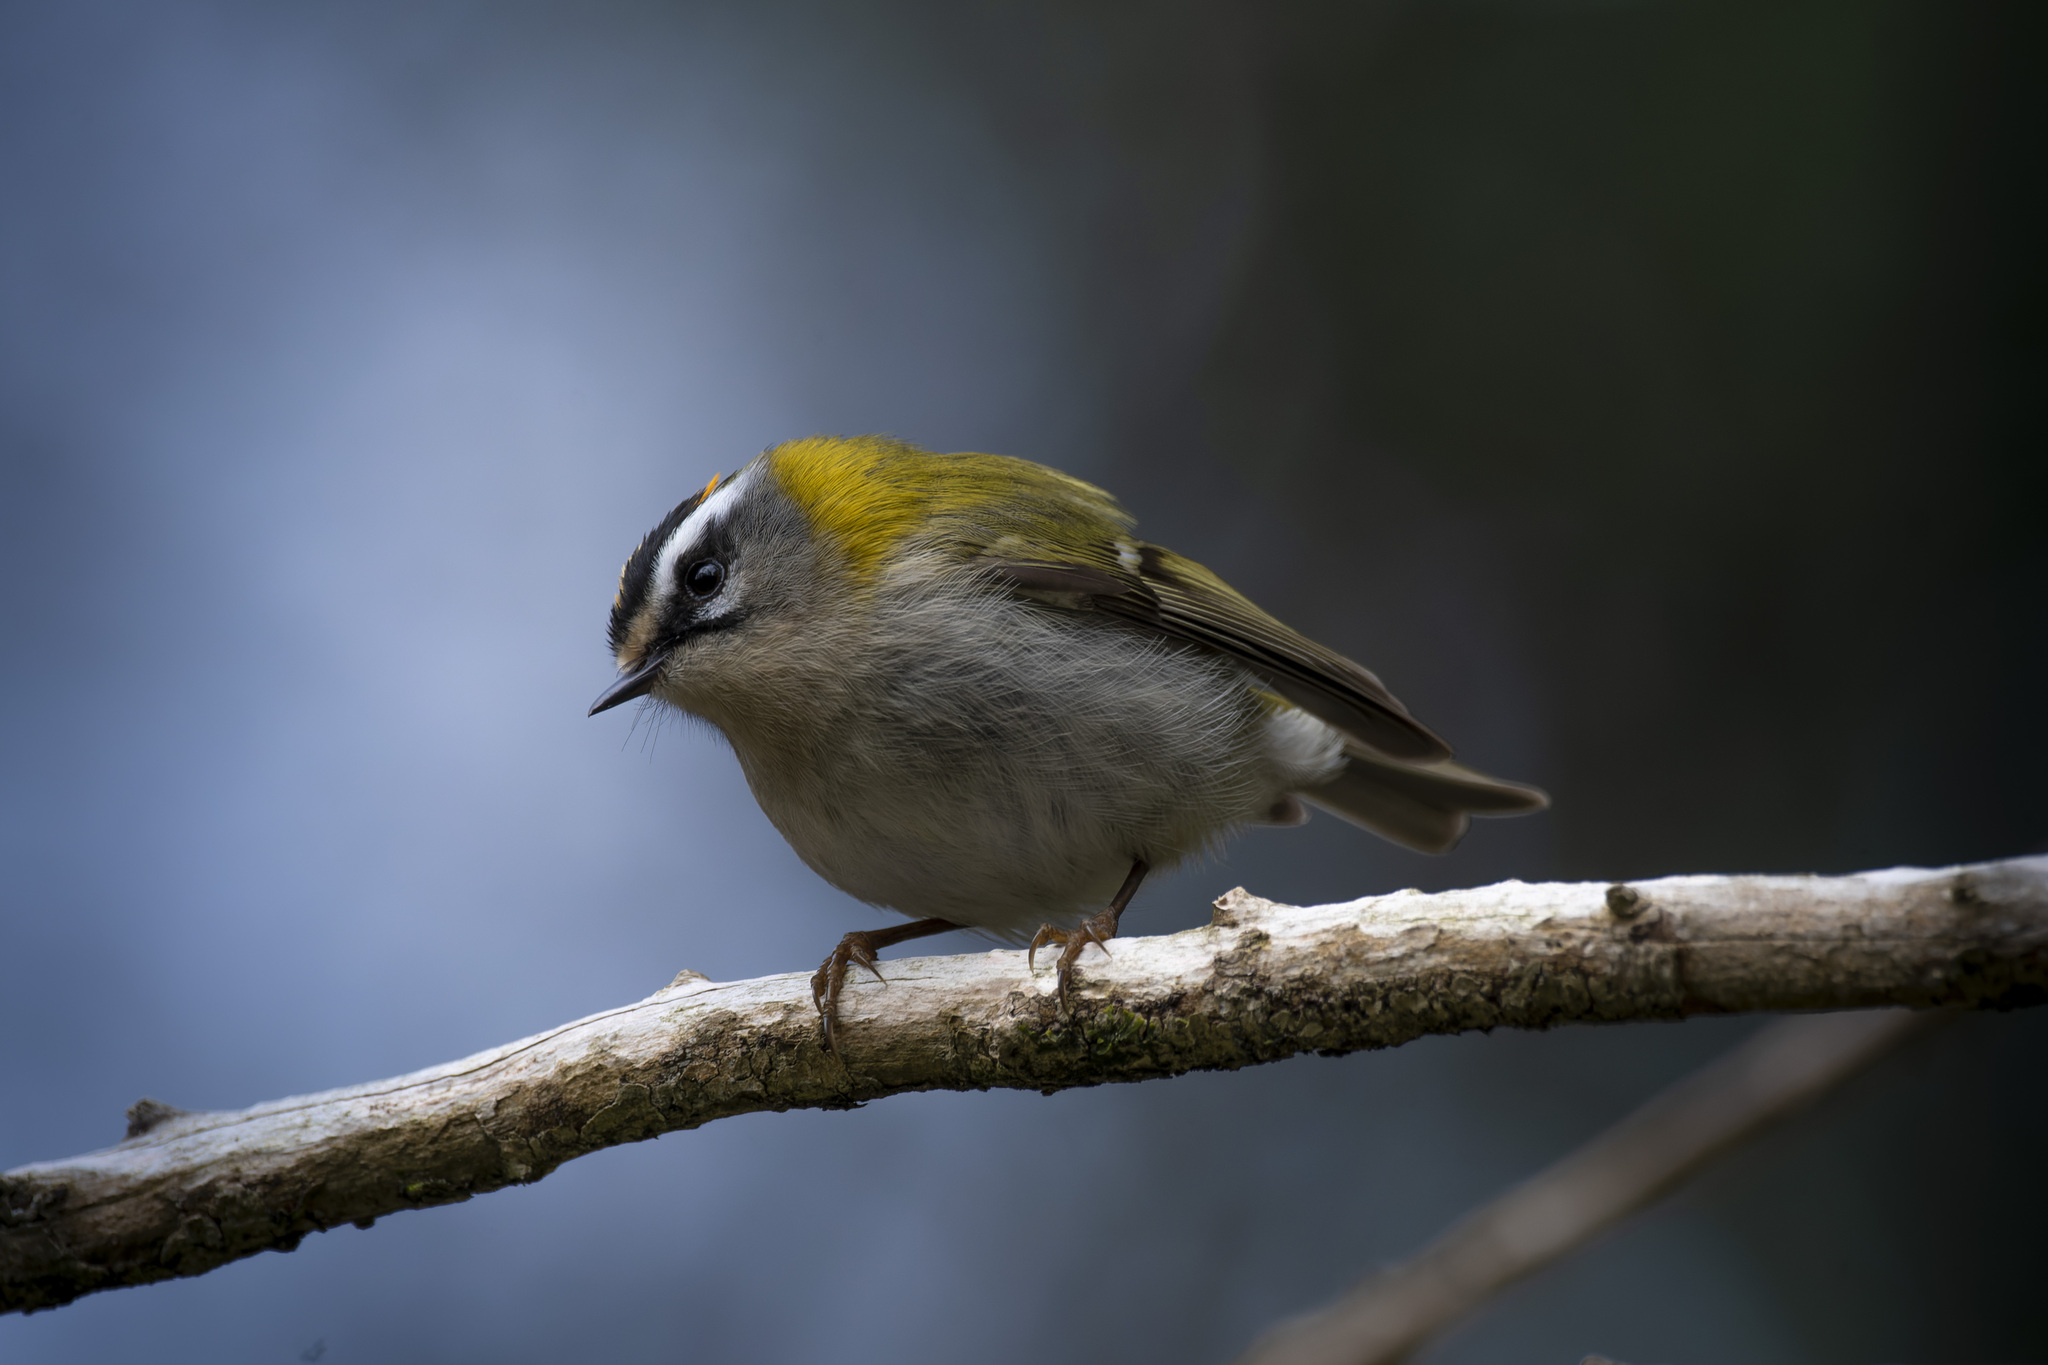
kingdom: Animalia
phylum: Chordata
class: Aves
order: Passeriformes
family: Regulidae
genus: Regulus
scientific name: Regulus ignicapilla
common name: Firecrest
